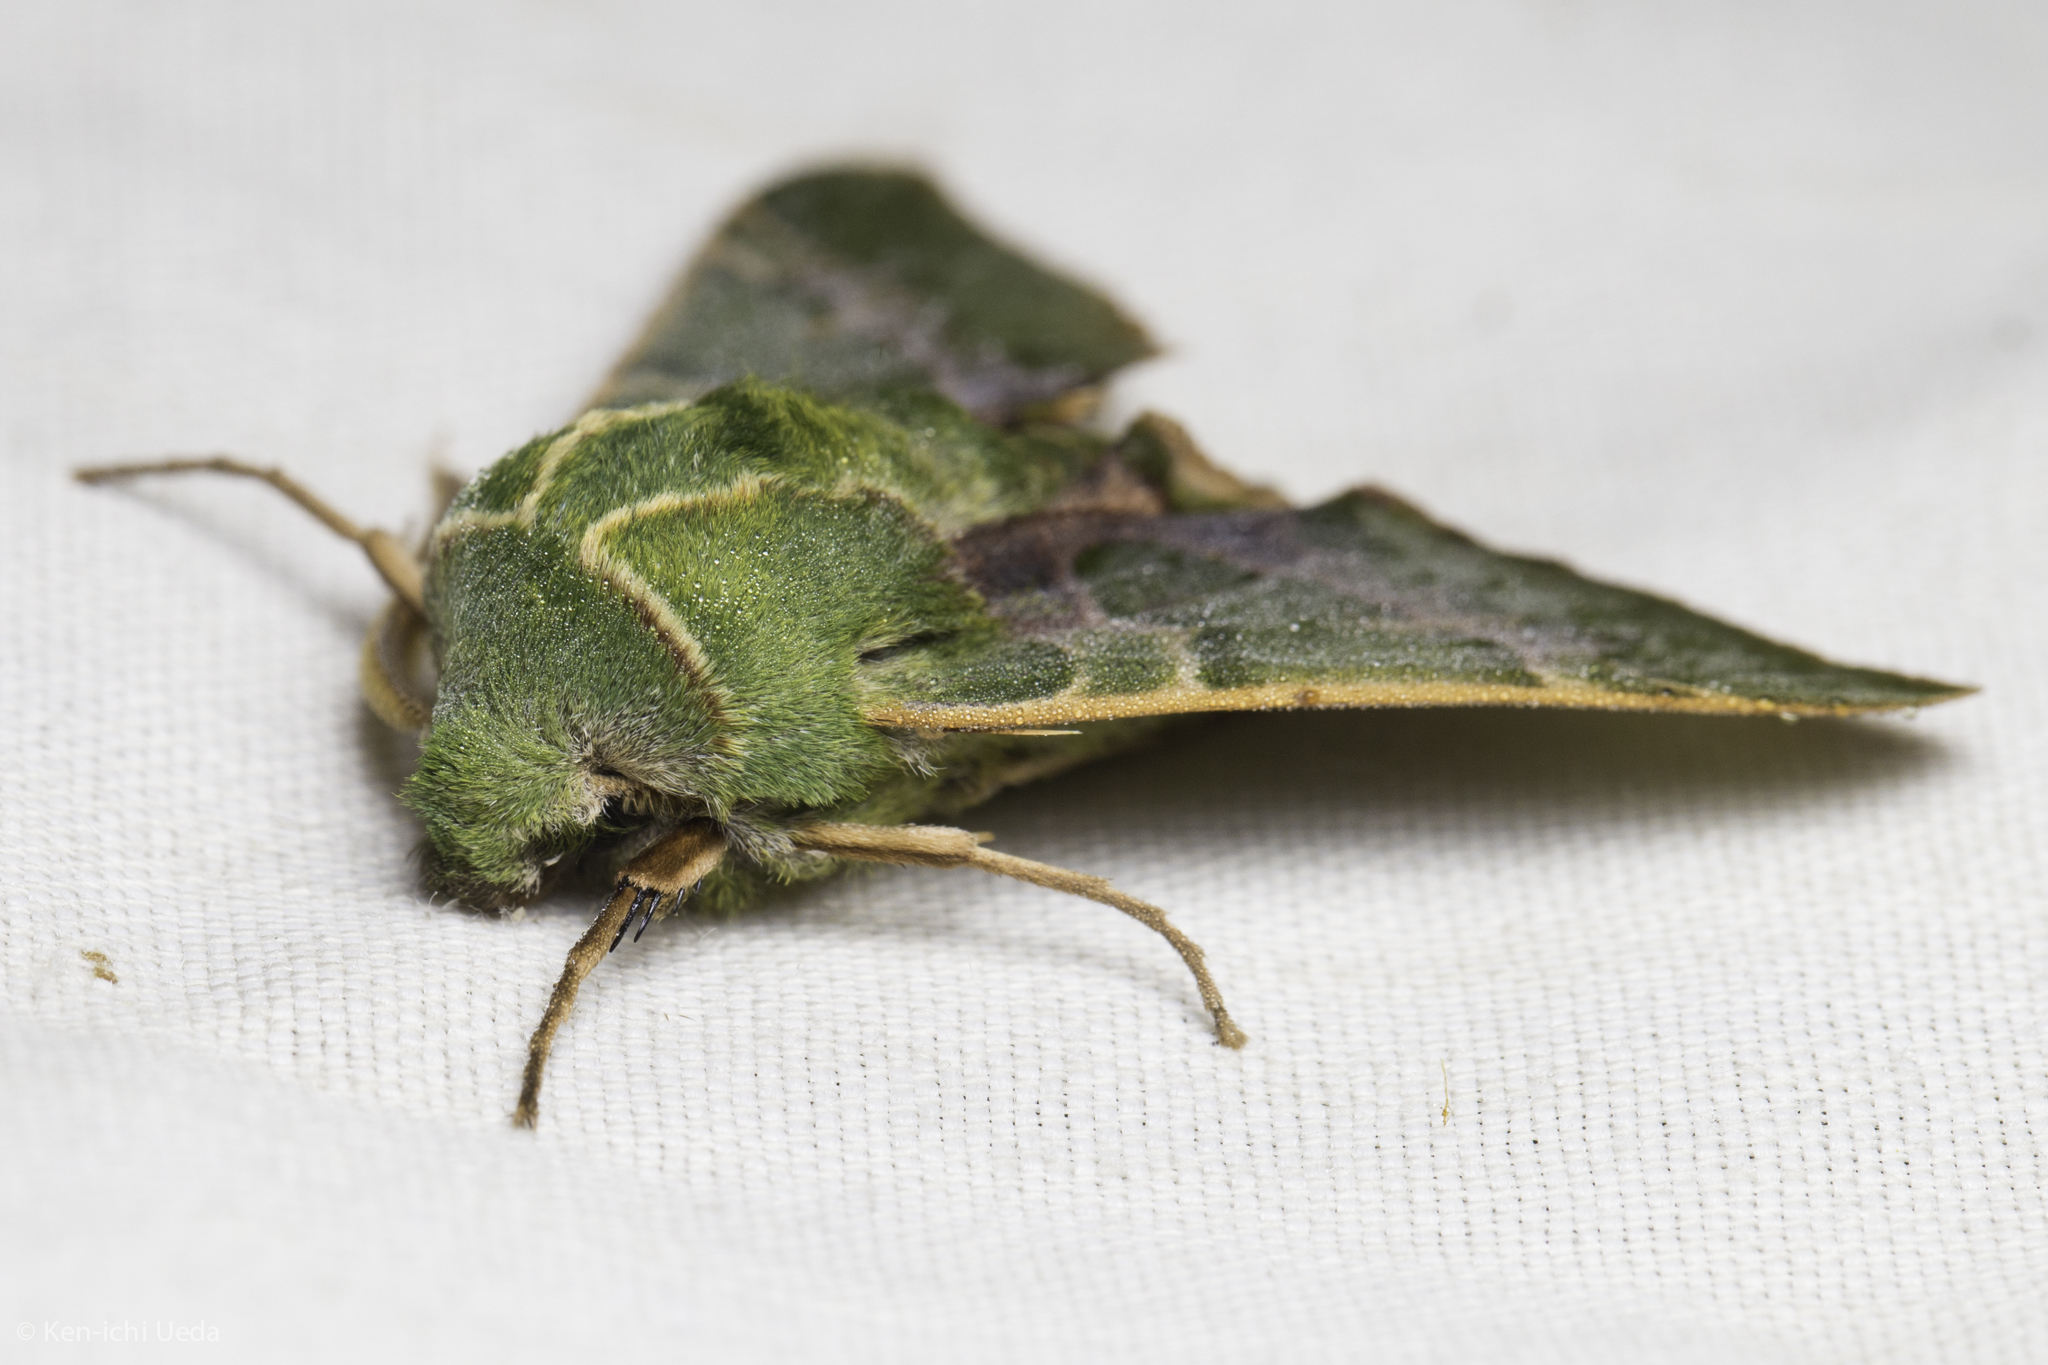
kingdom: Animalia
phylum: Arthropoda
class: Insecta
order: Lepidoptera
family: Sphingidae
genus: Proserpinus
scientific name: Proserpinus lucidus
